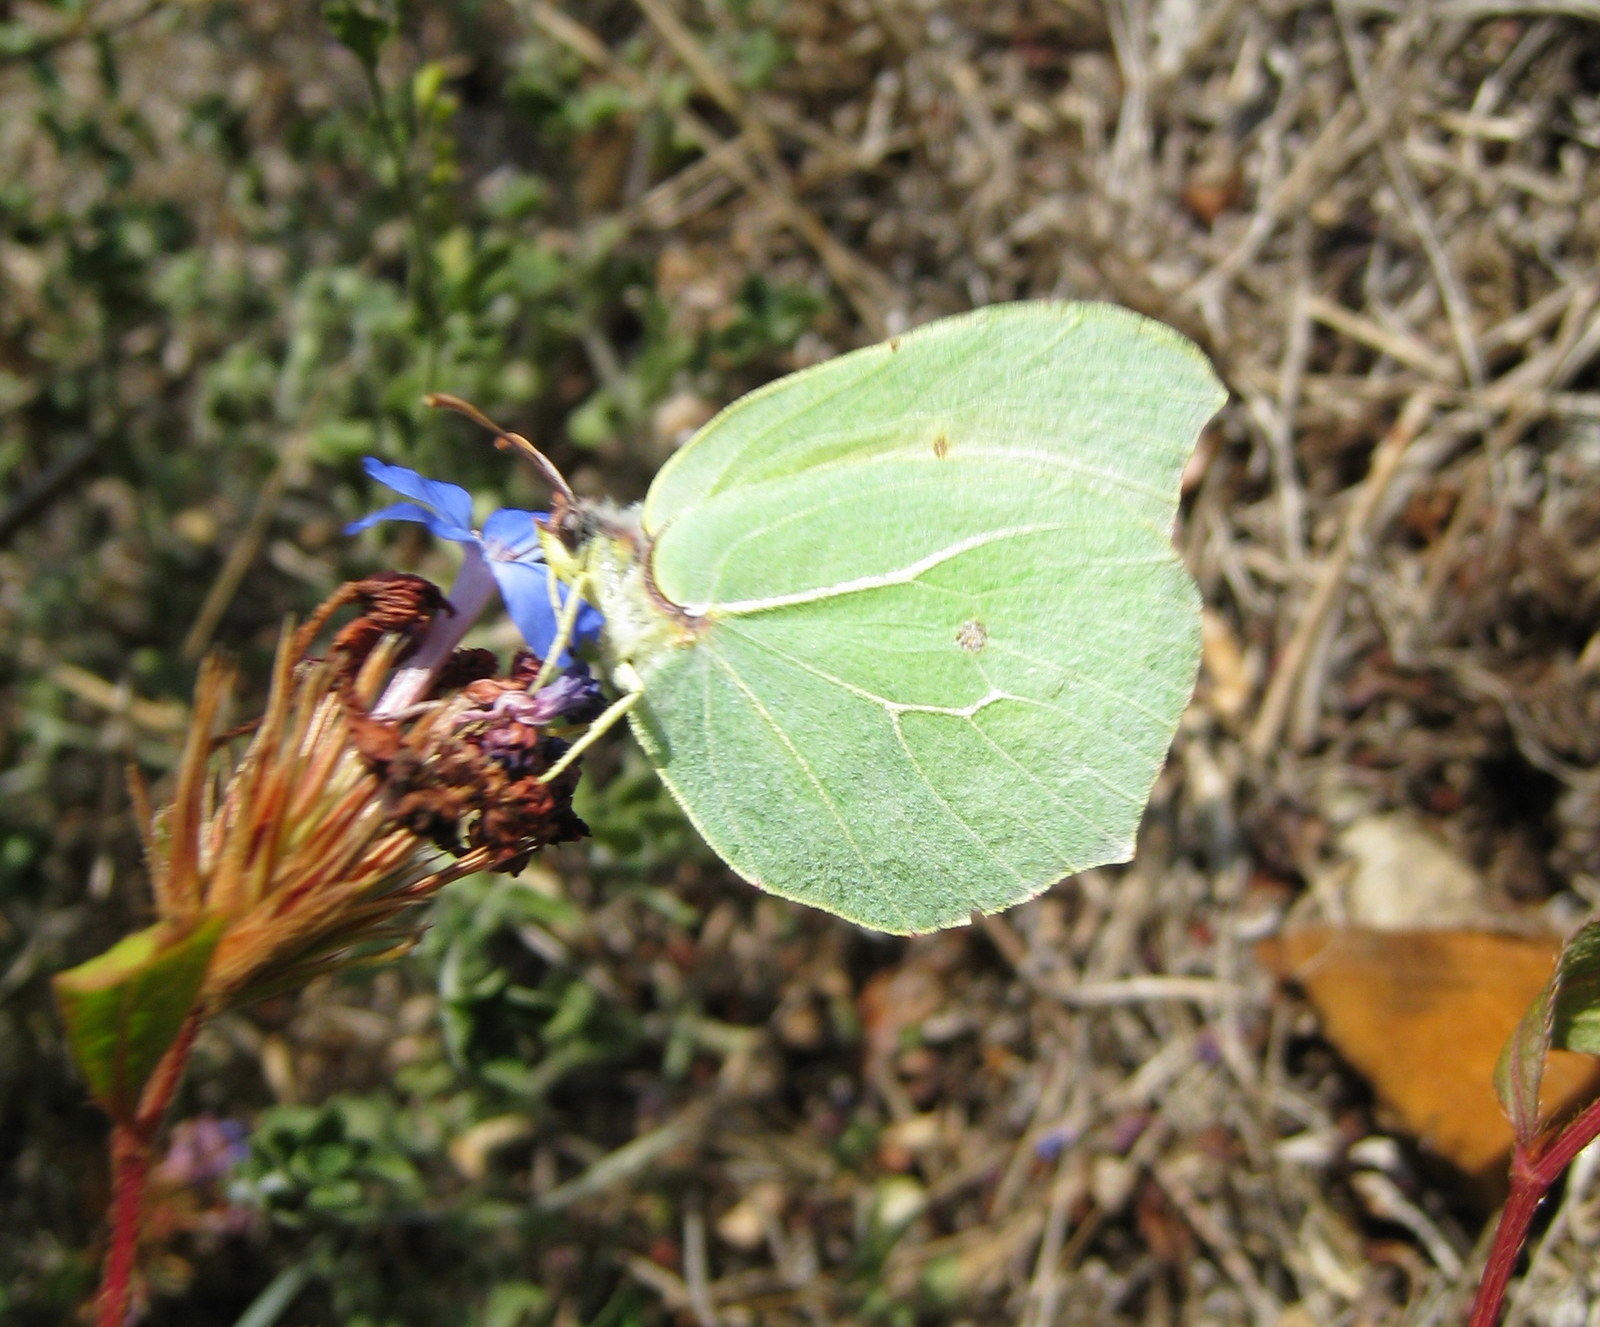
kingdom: Animalia
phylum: Arthropoda
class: Insecta
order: Lepidoptera
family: Pieridae
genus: Gonepteryx
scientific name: Gonepteryx cleopatra
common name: Cleopatra
